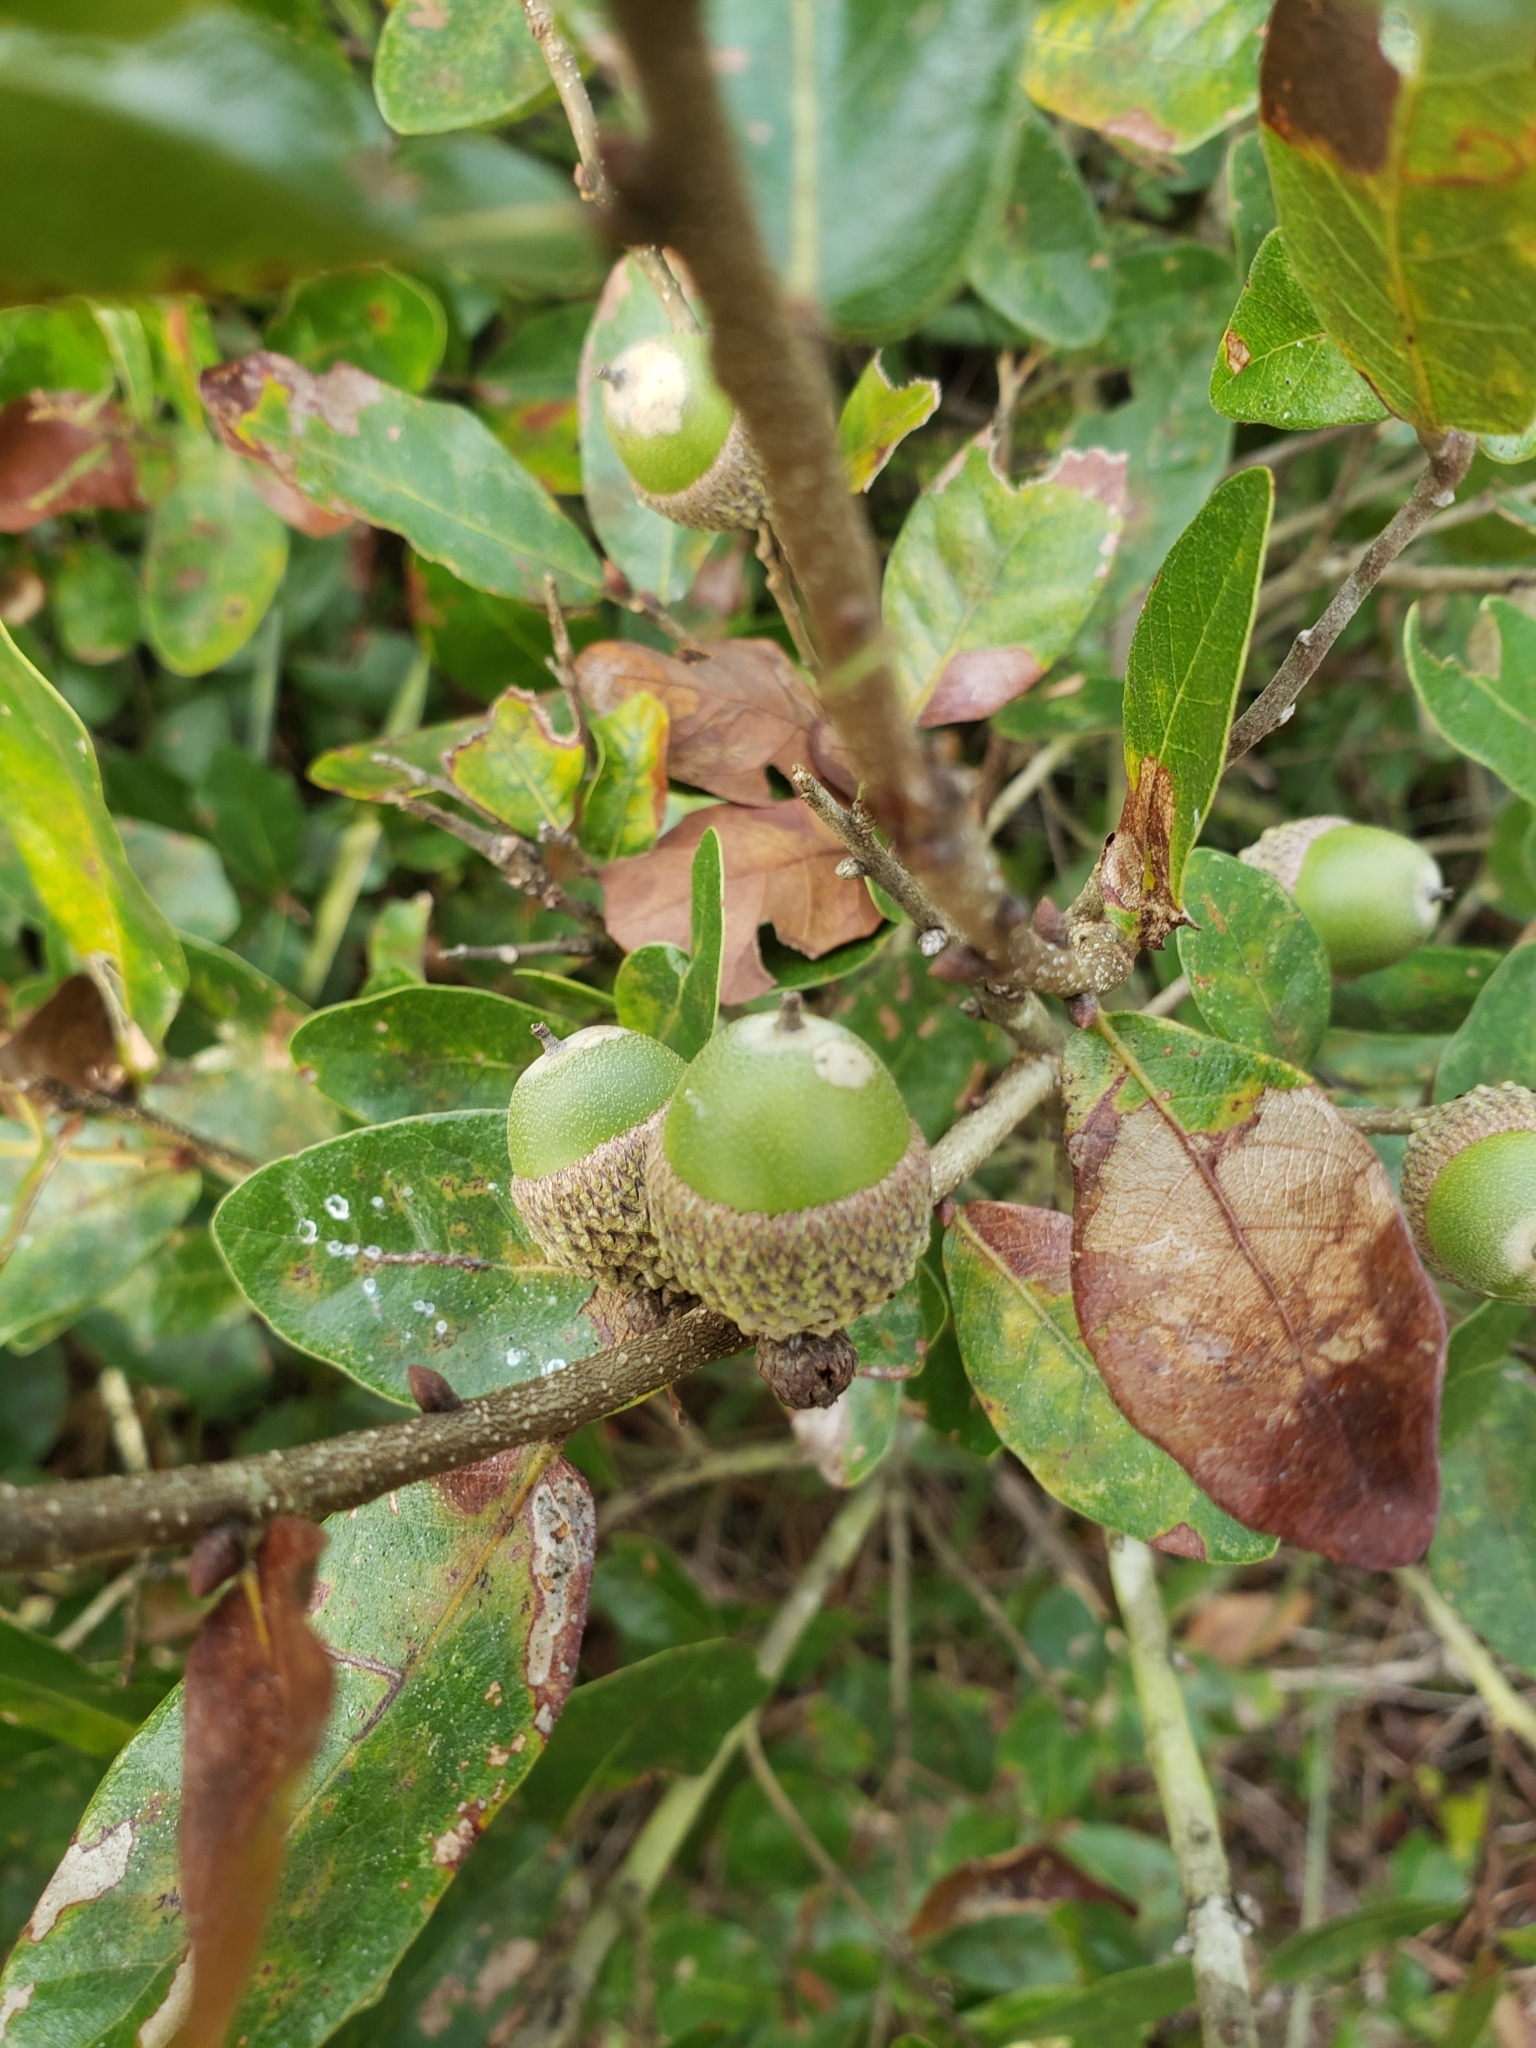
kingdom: Plantae
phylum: Tracheophyta
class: Magnoliopsida
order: Fagales
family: Fagaceae
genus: Quercus
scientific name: Quercus chapmanii
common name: Chapman oak
